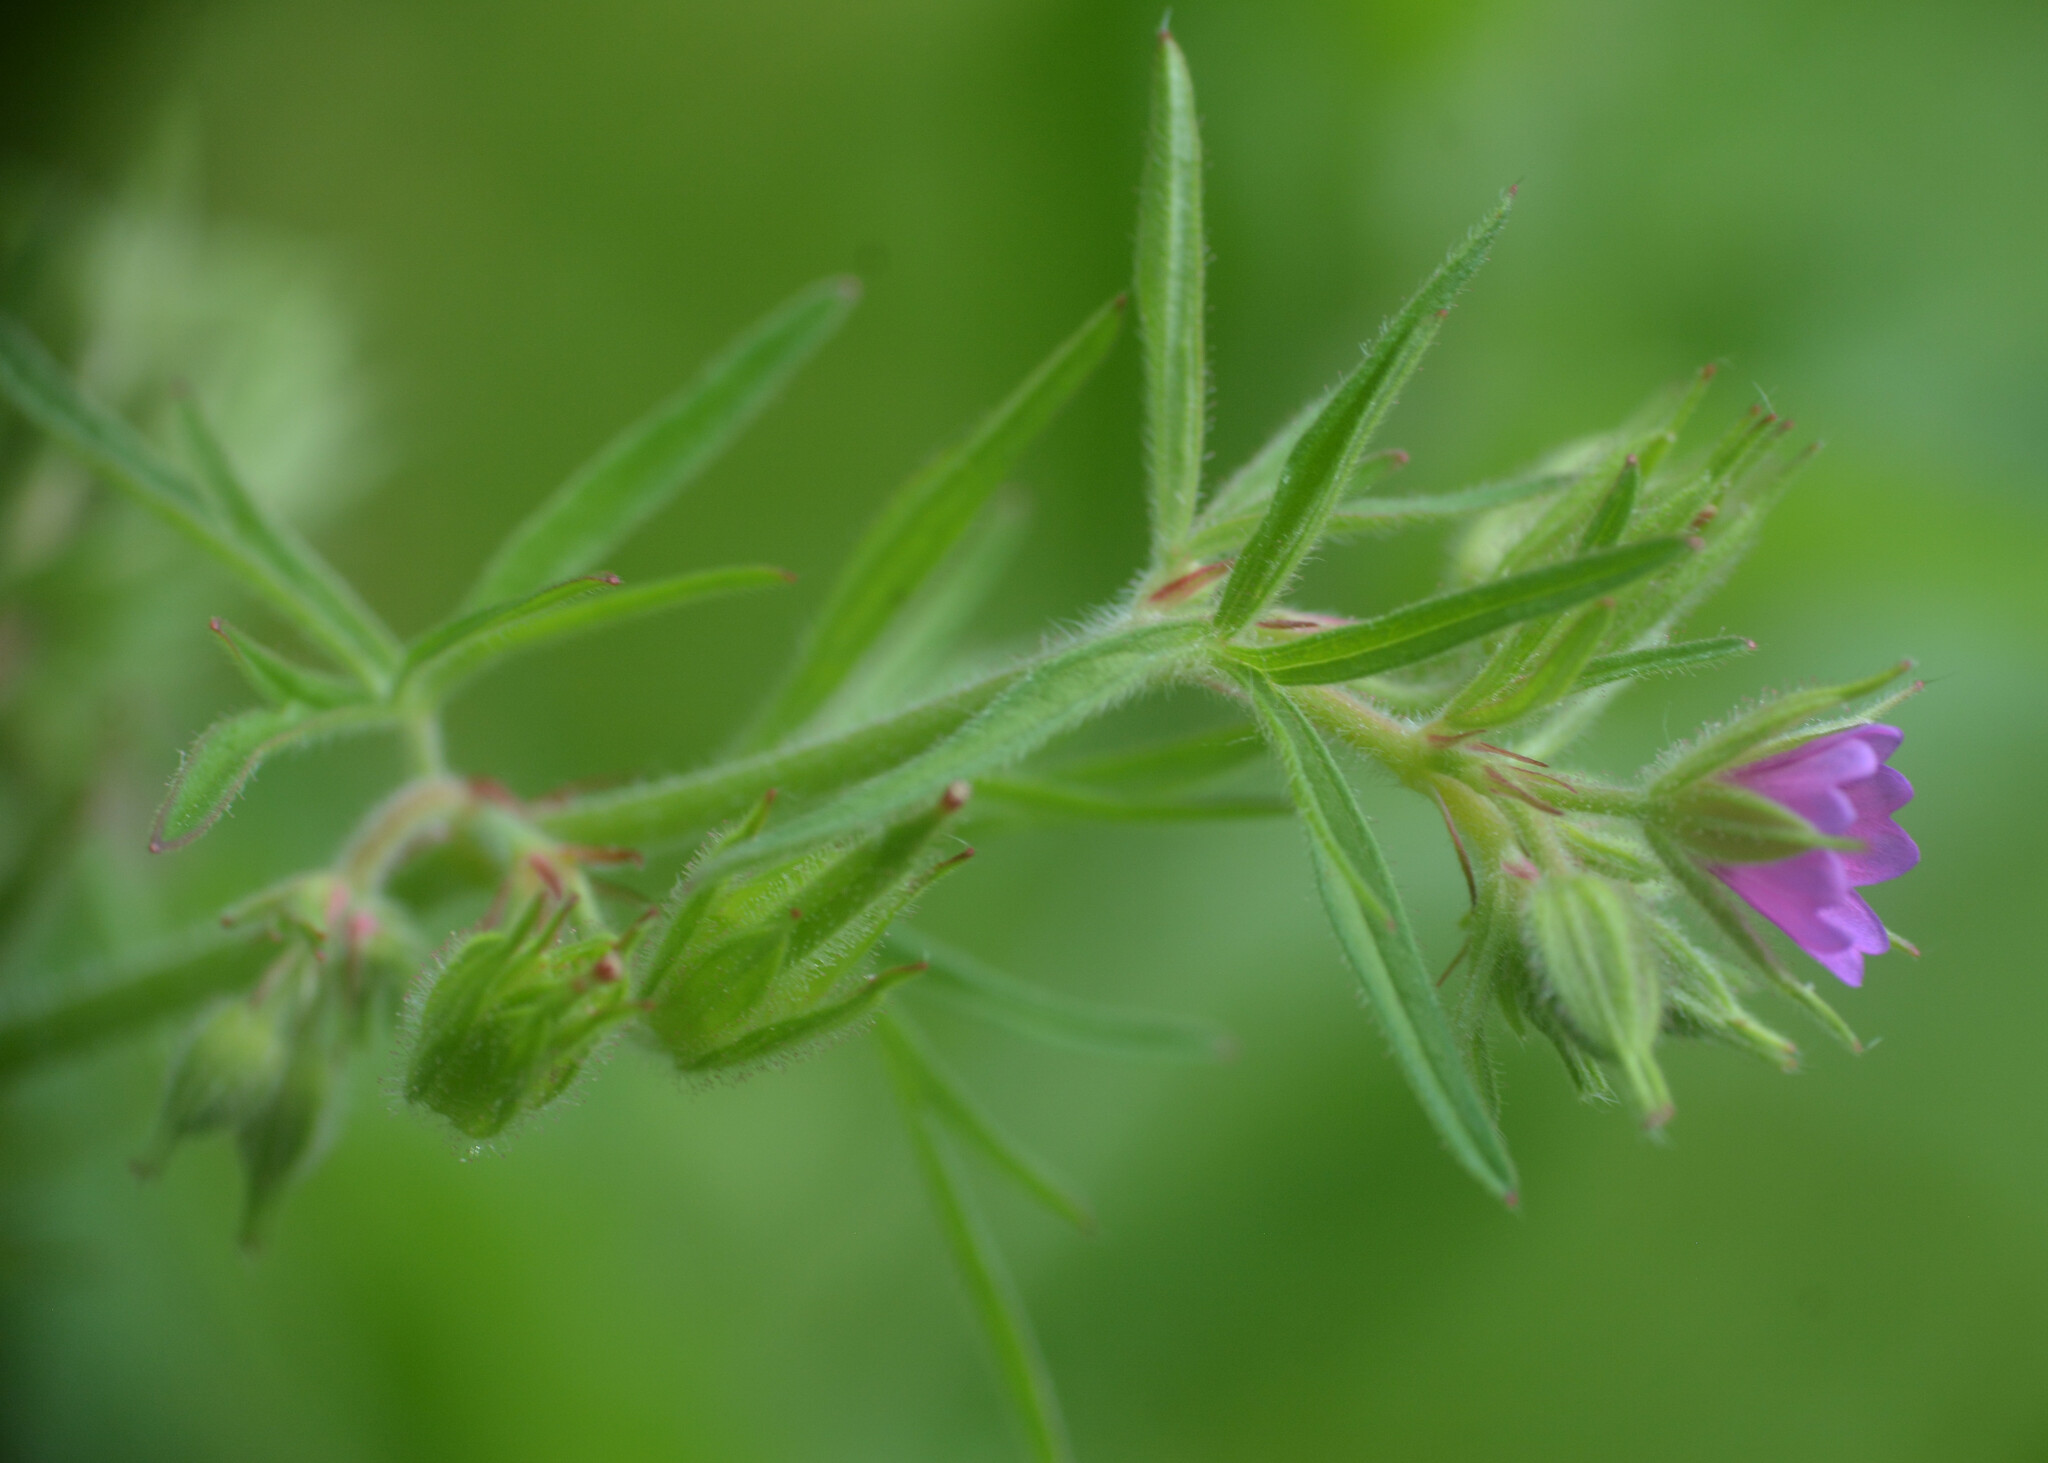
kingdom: Plantae
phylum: Tracheophyta
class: Magnoliopsida
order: Geraniales
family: Geraniaceae
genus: Geranium
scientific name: Geranium dissectum
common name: Cut-leaved crane's-bill
